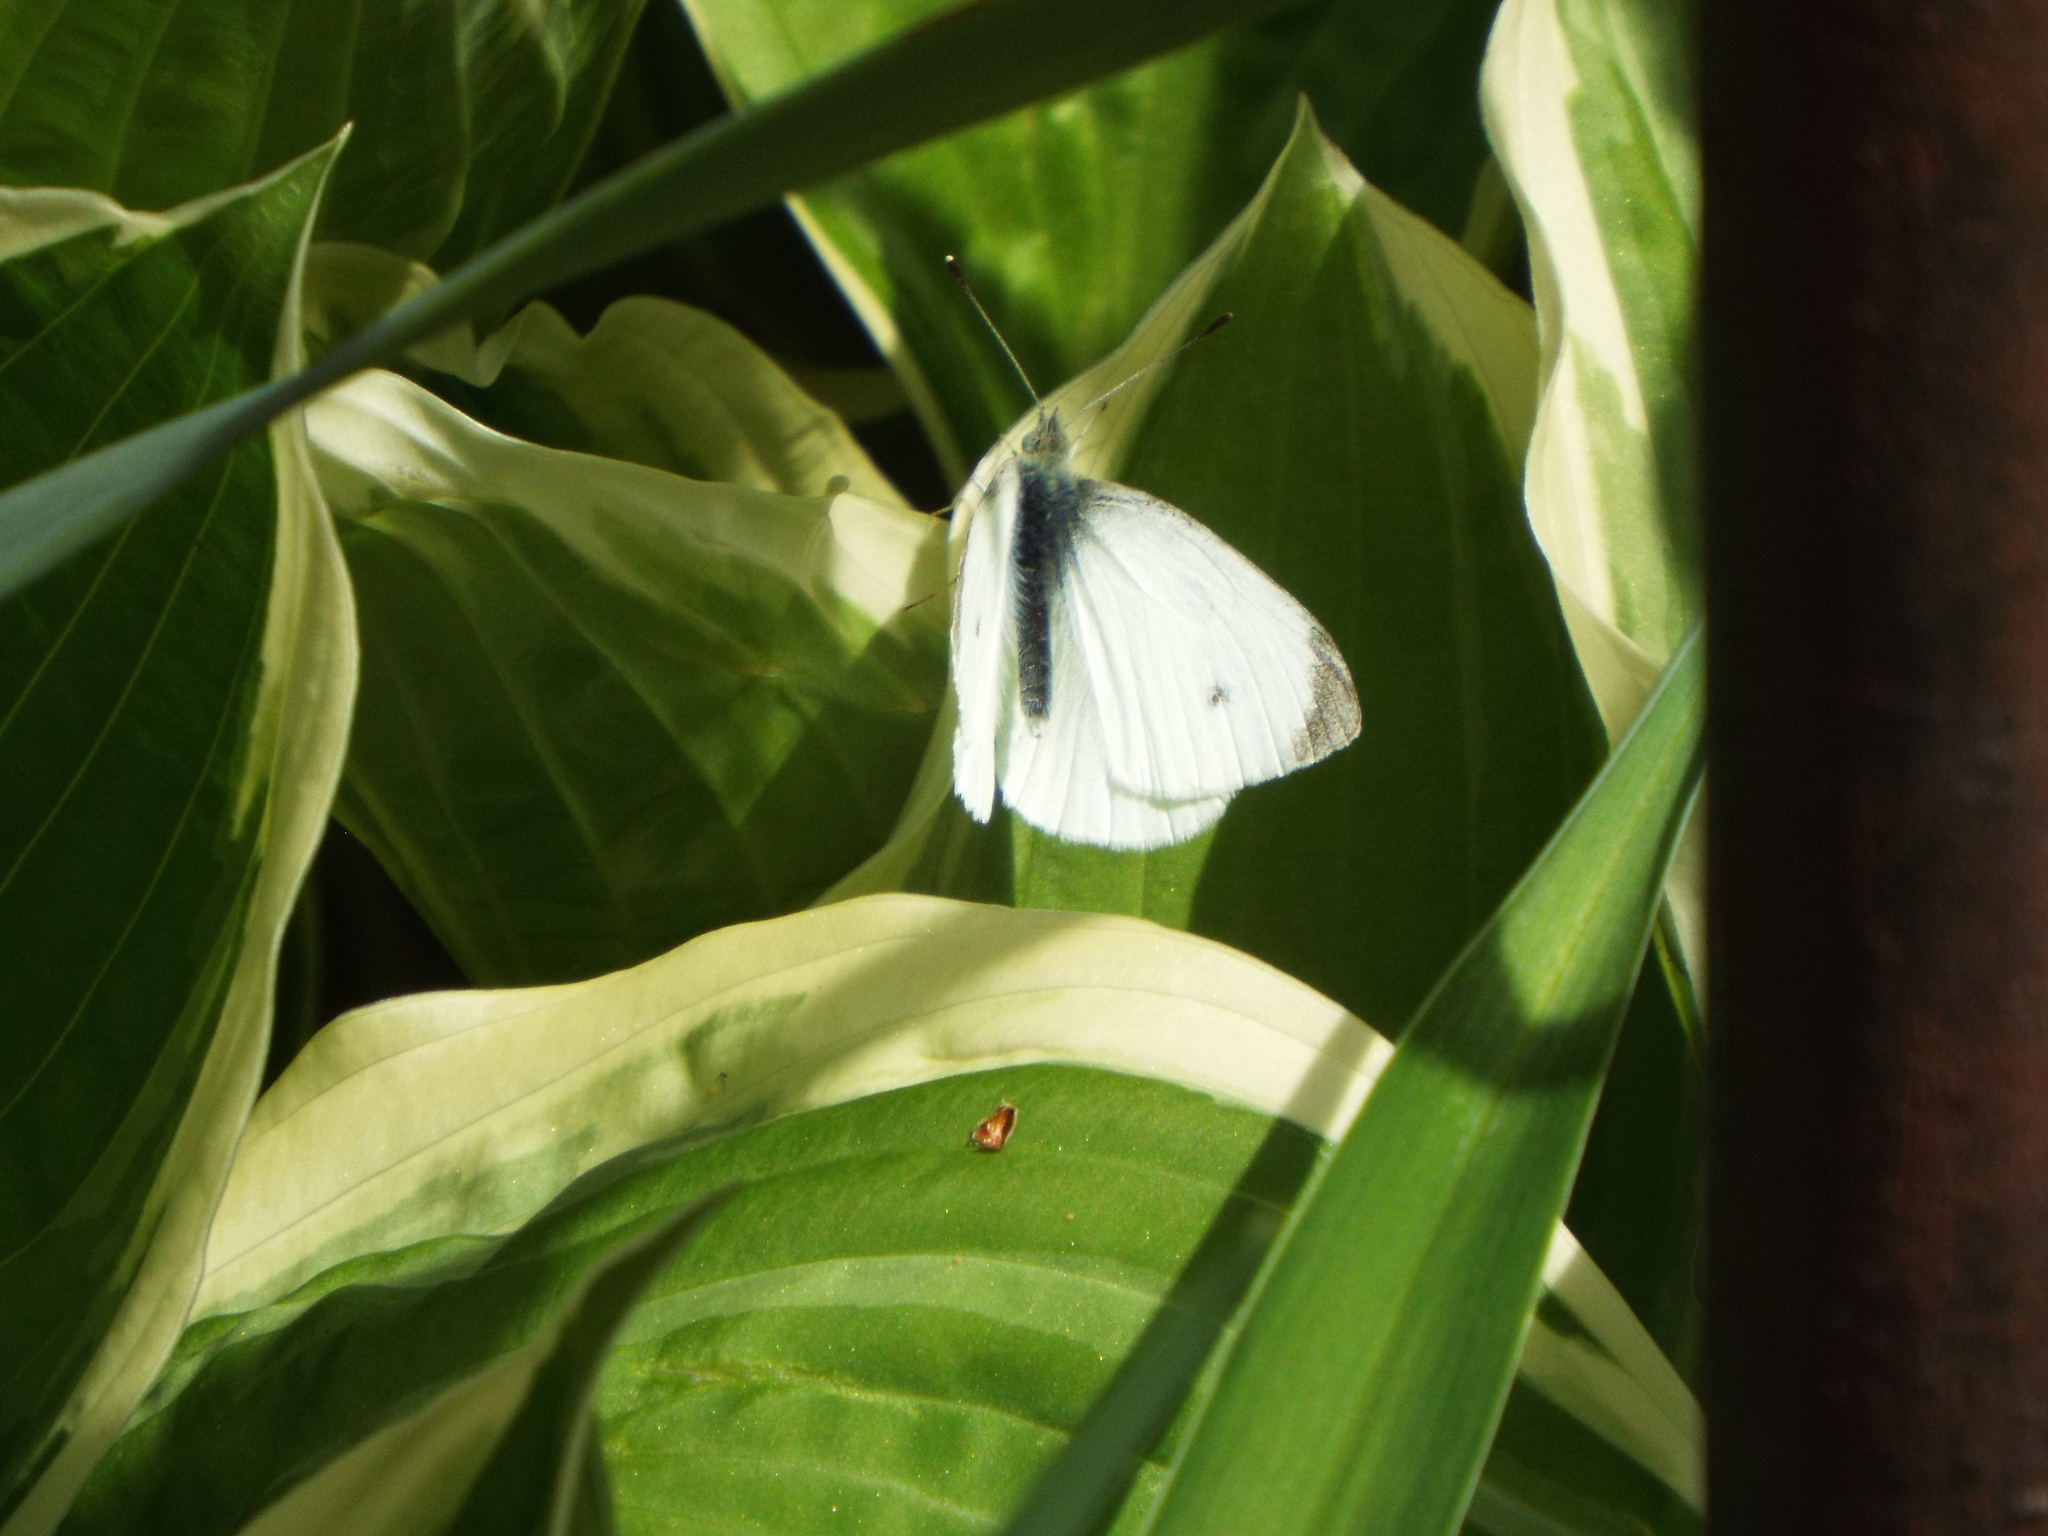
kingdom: Animalia
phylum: Arthropoda
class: Insecta
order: Lepidoptera
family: Pieridae
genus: Pieris
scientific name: Pieris rapae
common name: Small white
